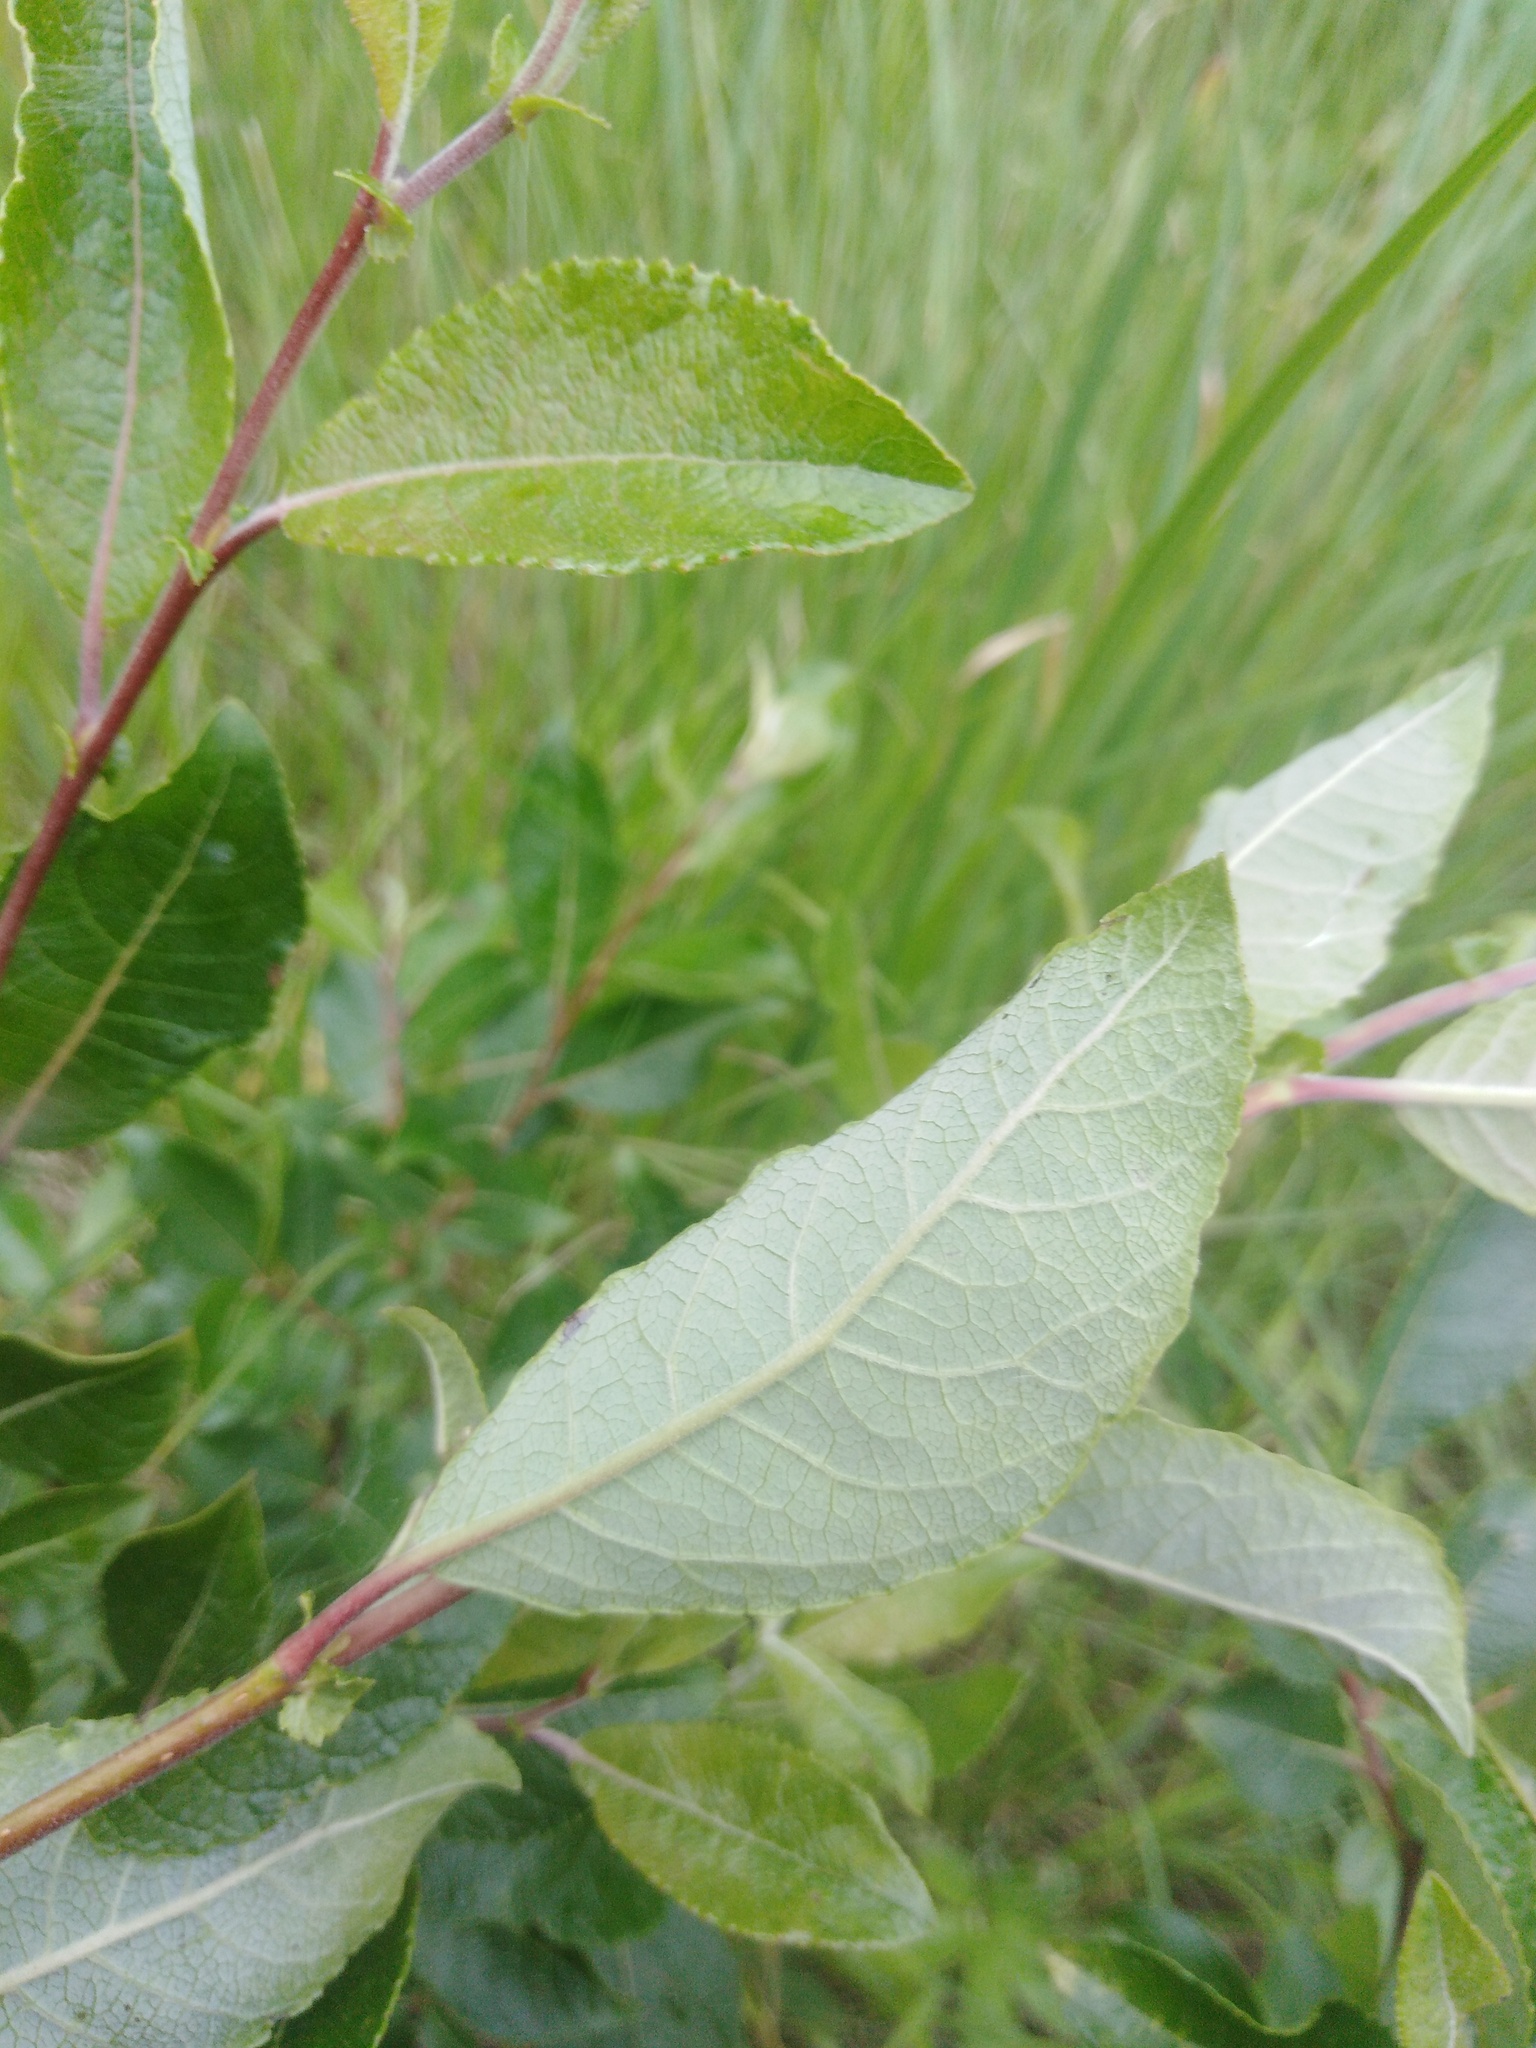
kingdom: Plantae
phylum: Tracheophyta
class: Magnoliopsida
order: Malpighiales
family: Salicaceae
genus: Salix
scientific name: Salix myrsinifolia
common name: Dark-leaved willow
